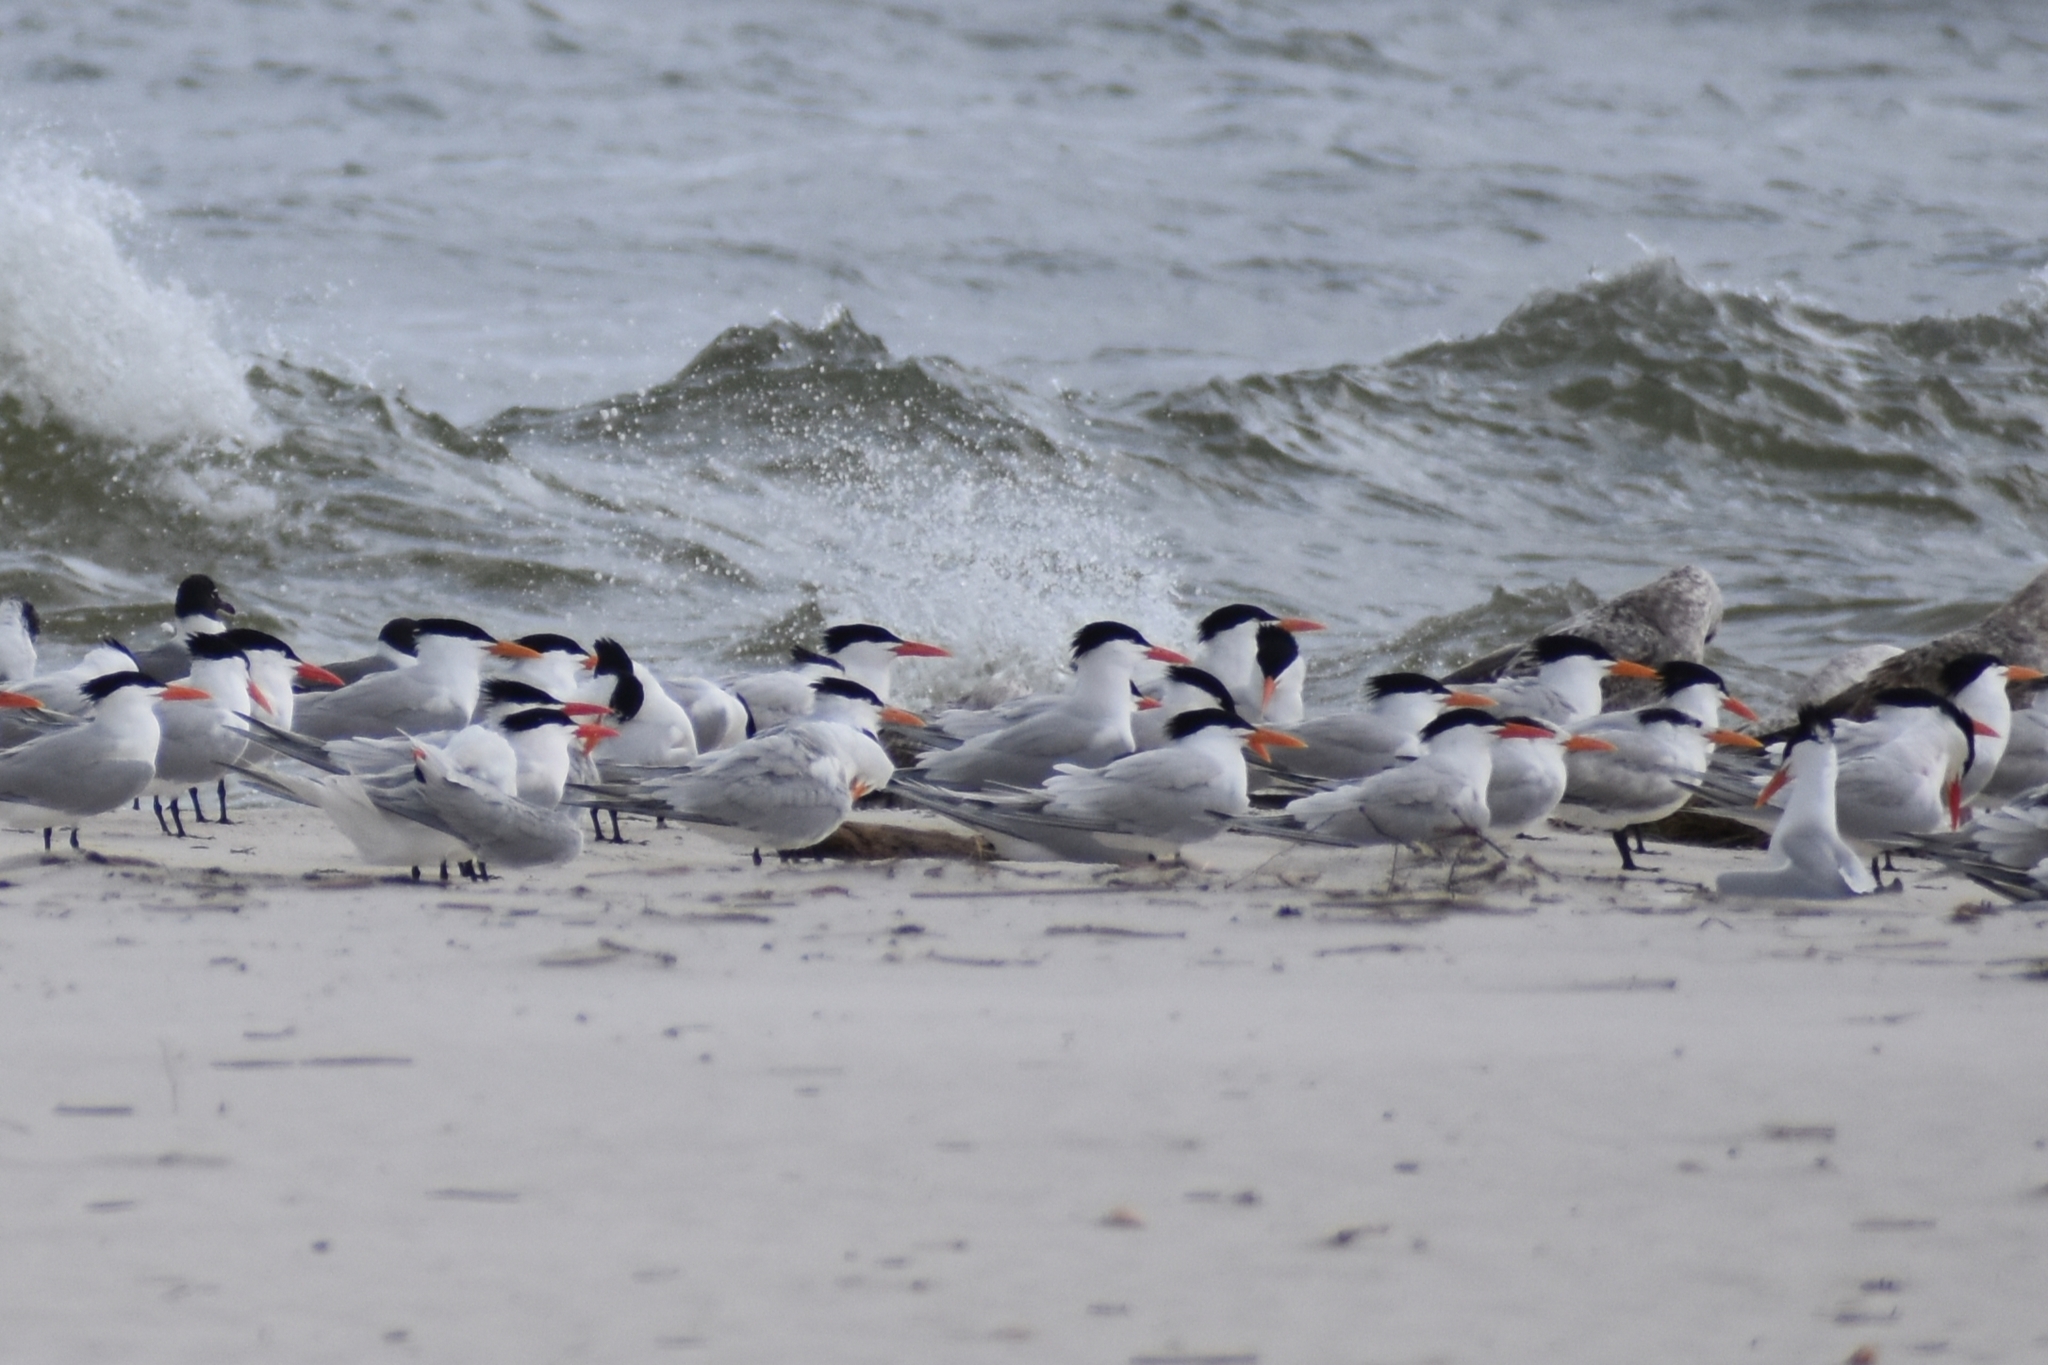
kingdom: Animalia
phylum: Chordata
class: Aves
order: Charadriiformes
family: Laridae
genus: Thalasseus
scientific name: Thalasseus maximus
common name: Royal tern
